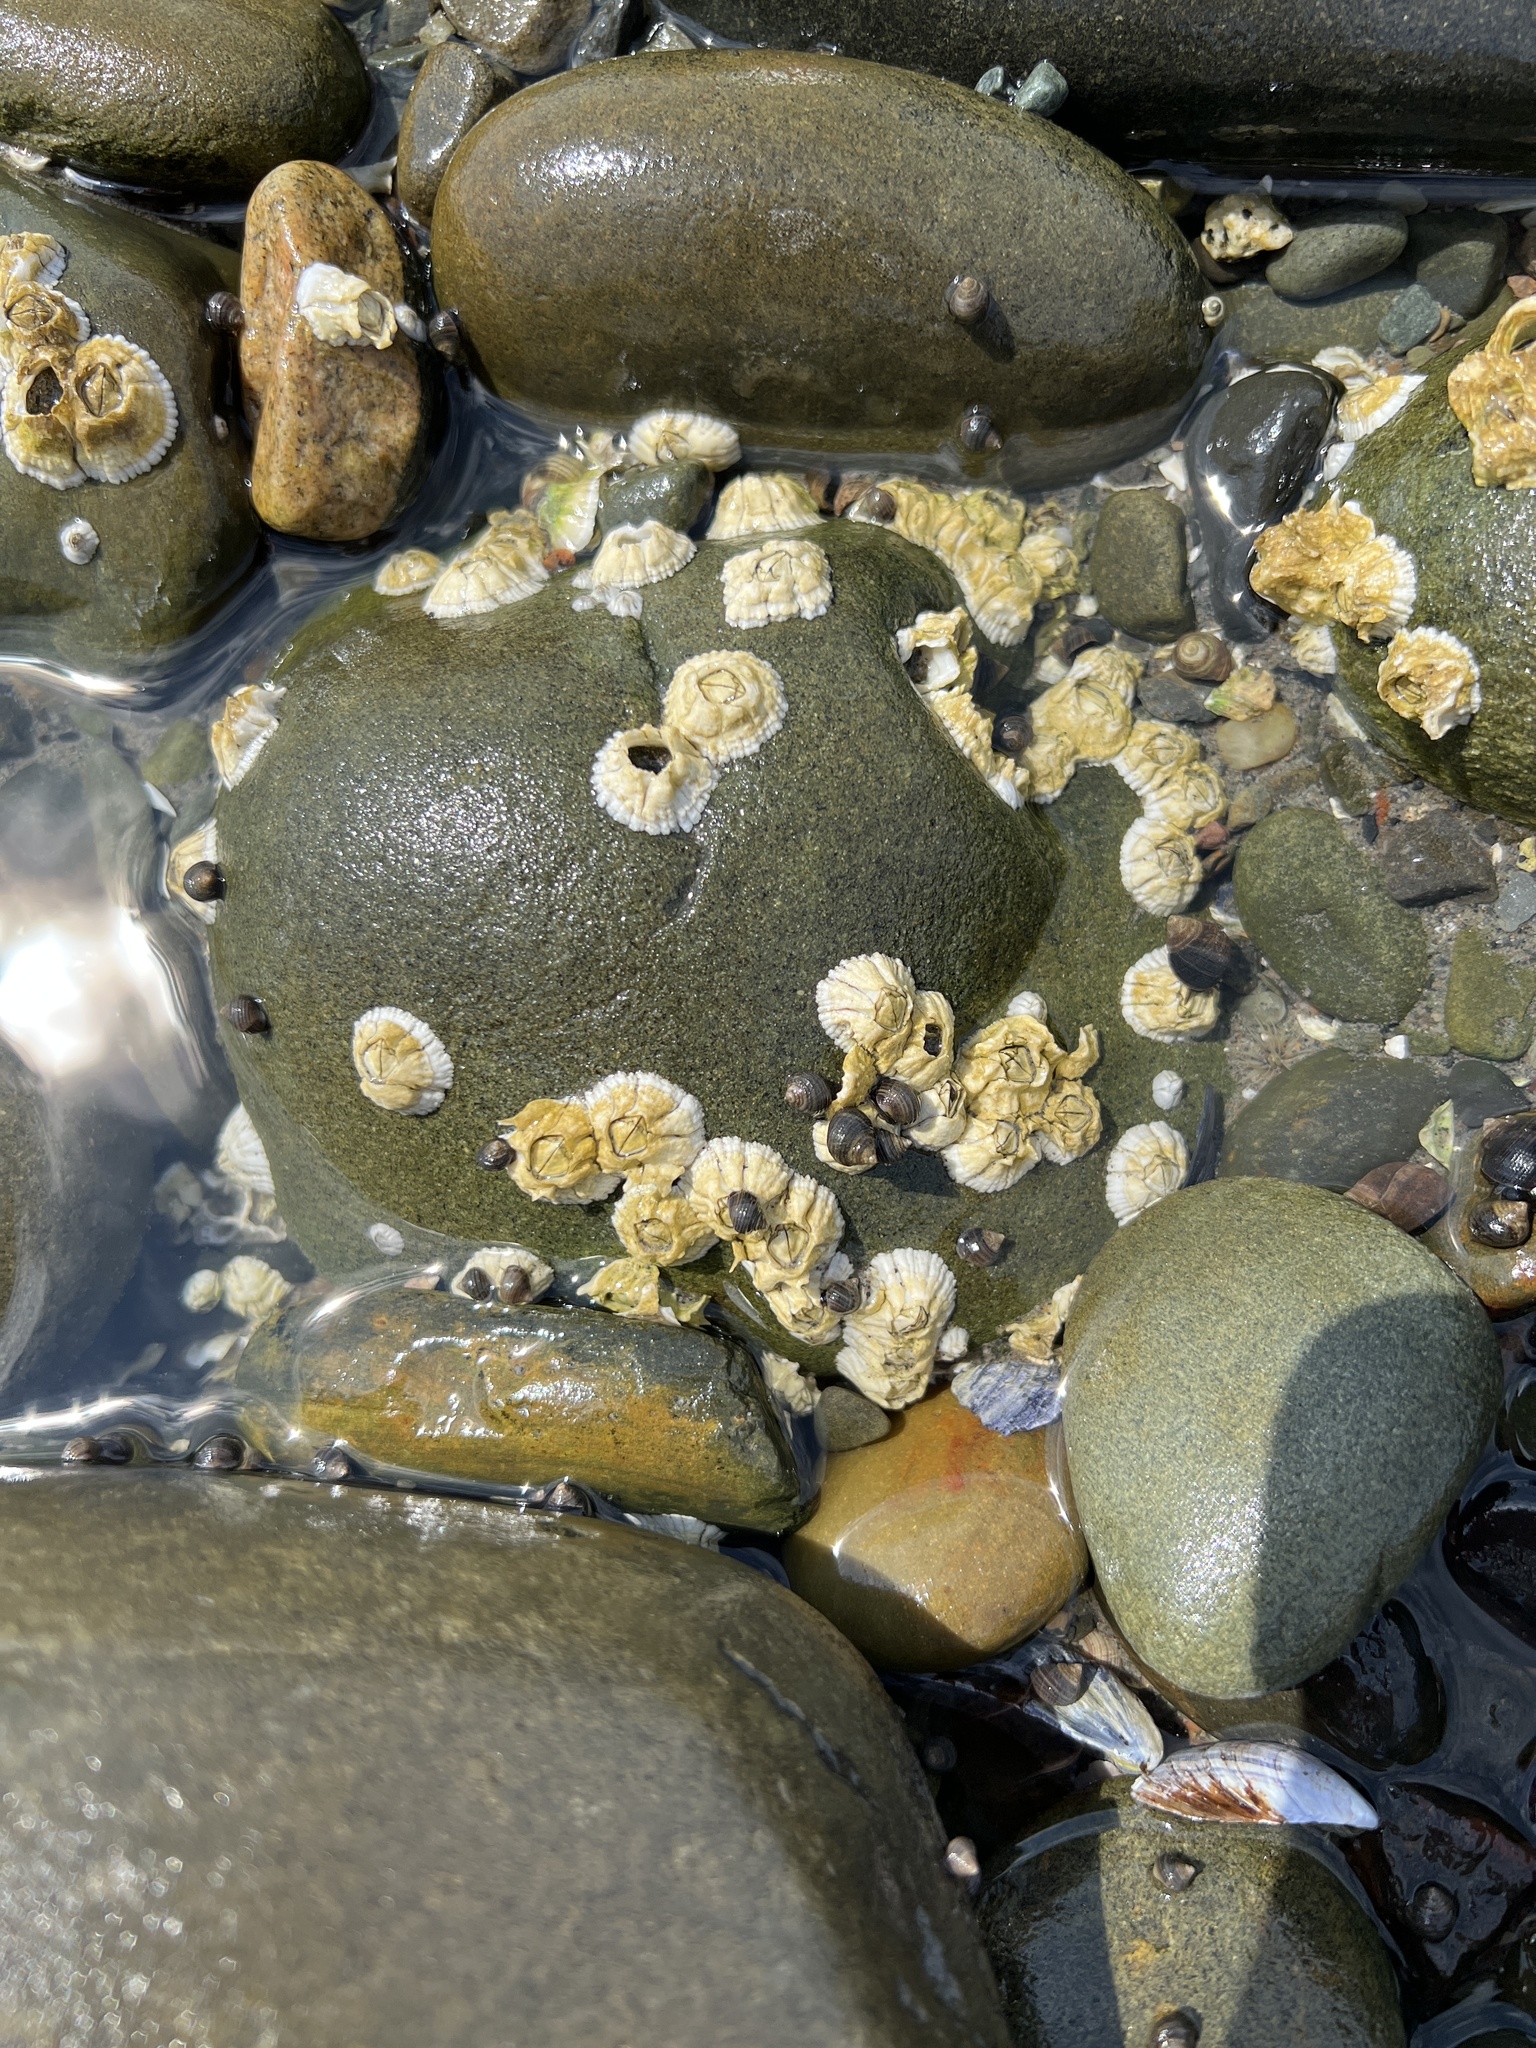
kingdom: Animalia
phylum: Arthropoda
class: Maxillopoda
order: Sessilia
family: Archaeobalanidae
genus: Semibalanus
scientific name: Semibalanus balanoides
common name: Acorn barnacle
